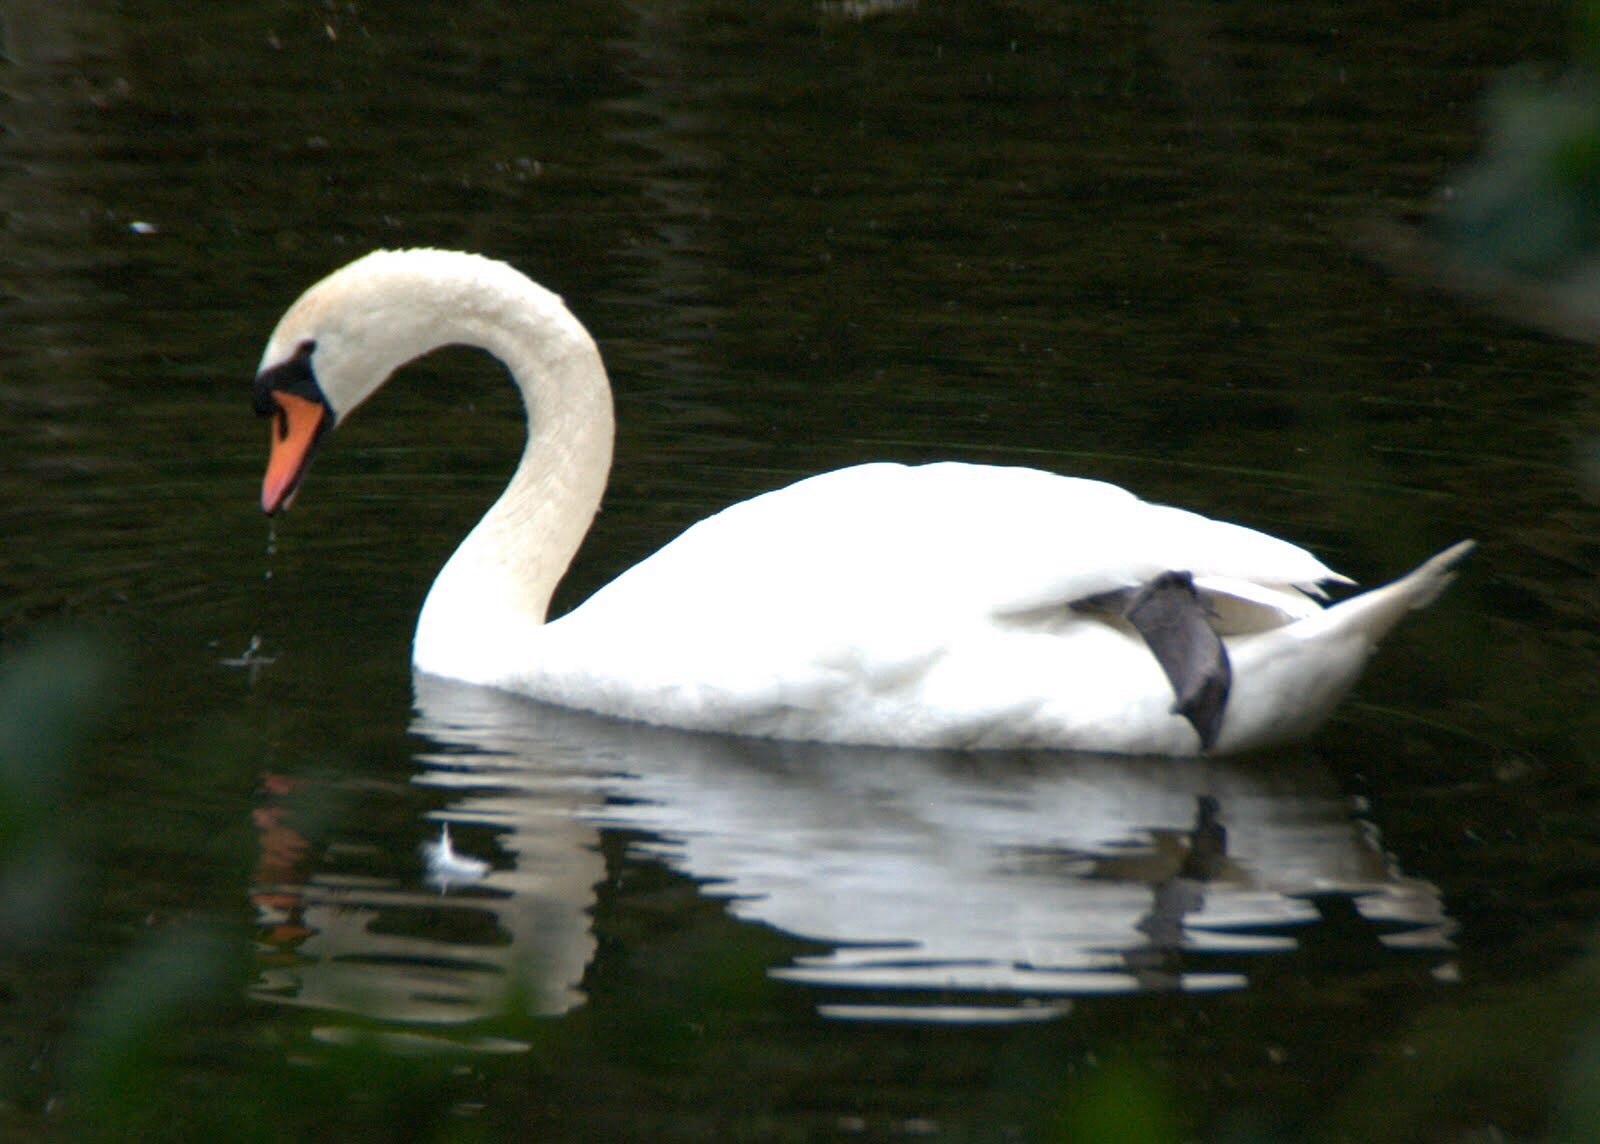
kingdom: Animalia
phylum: Chordata
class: Aves
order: Anseriformes
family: Anatidae
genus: Cygnus
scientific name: Cygnus olor
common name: Mute swan
